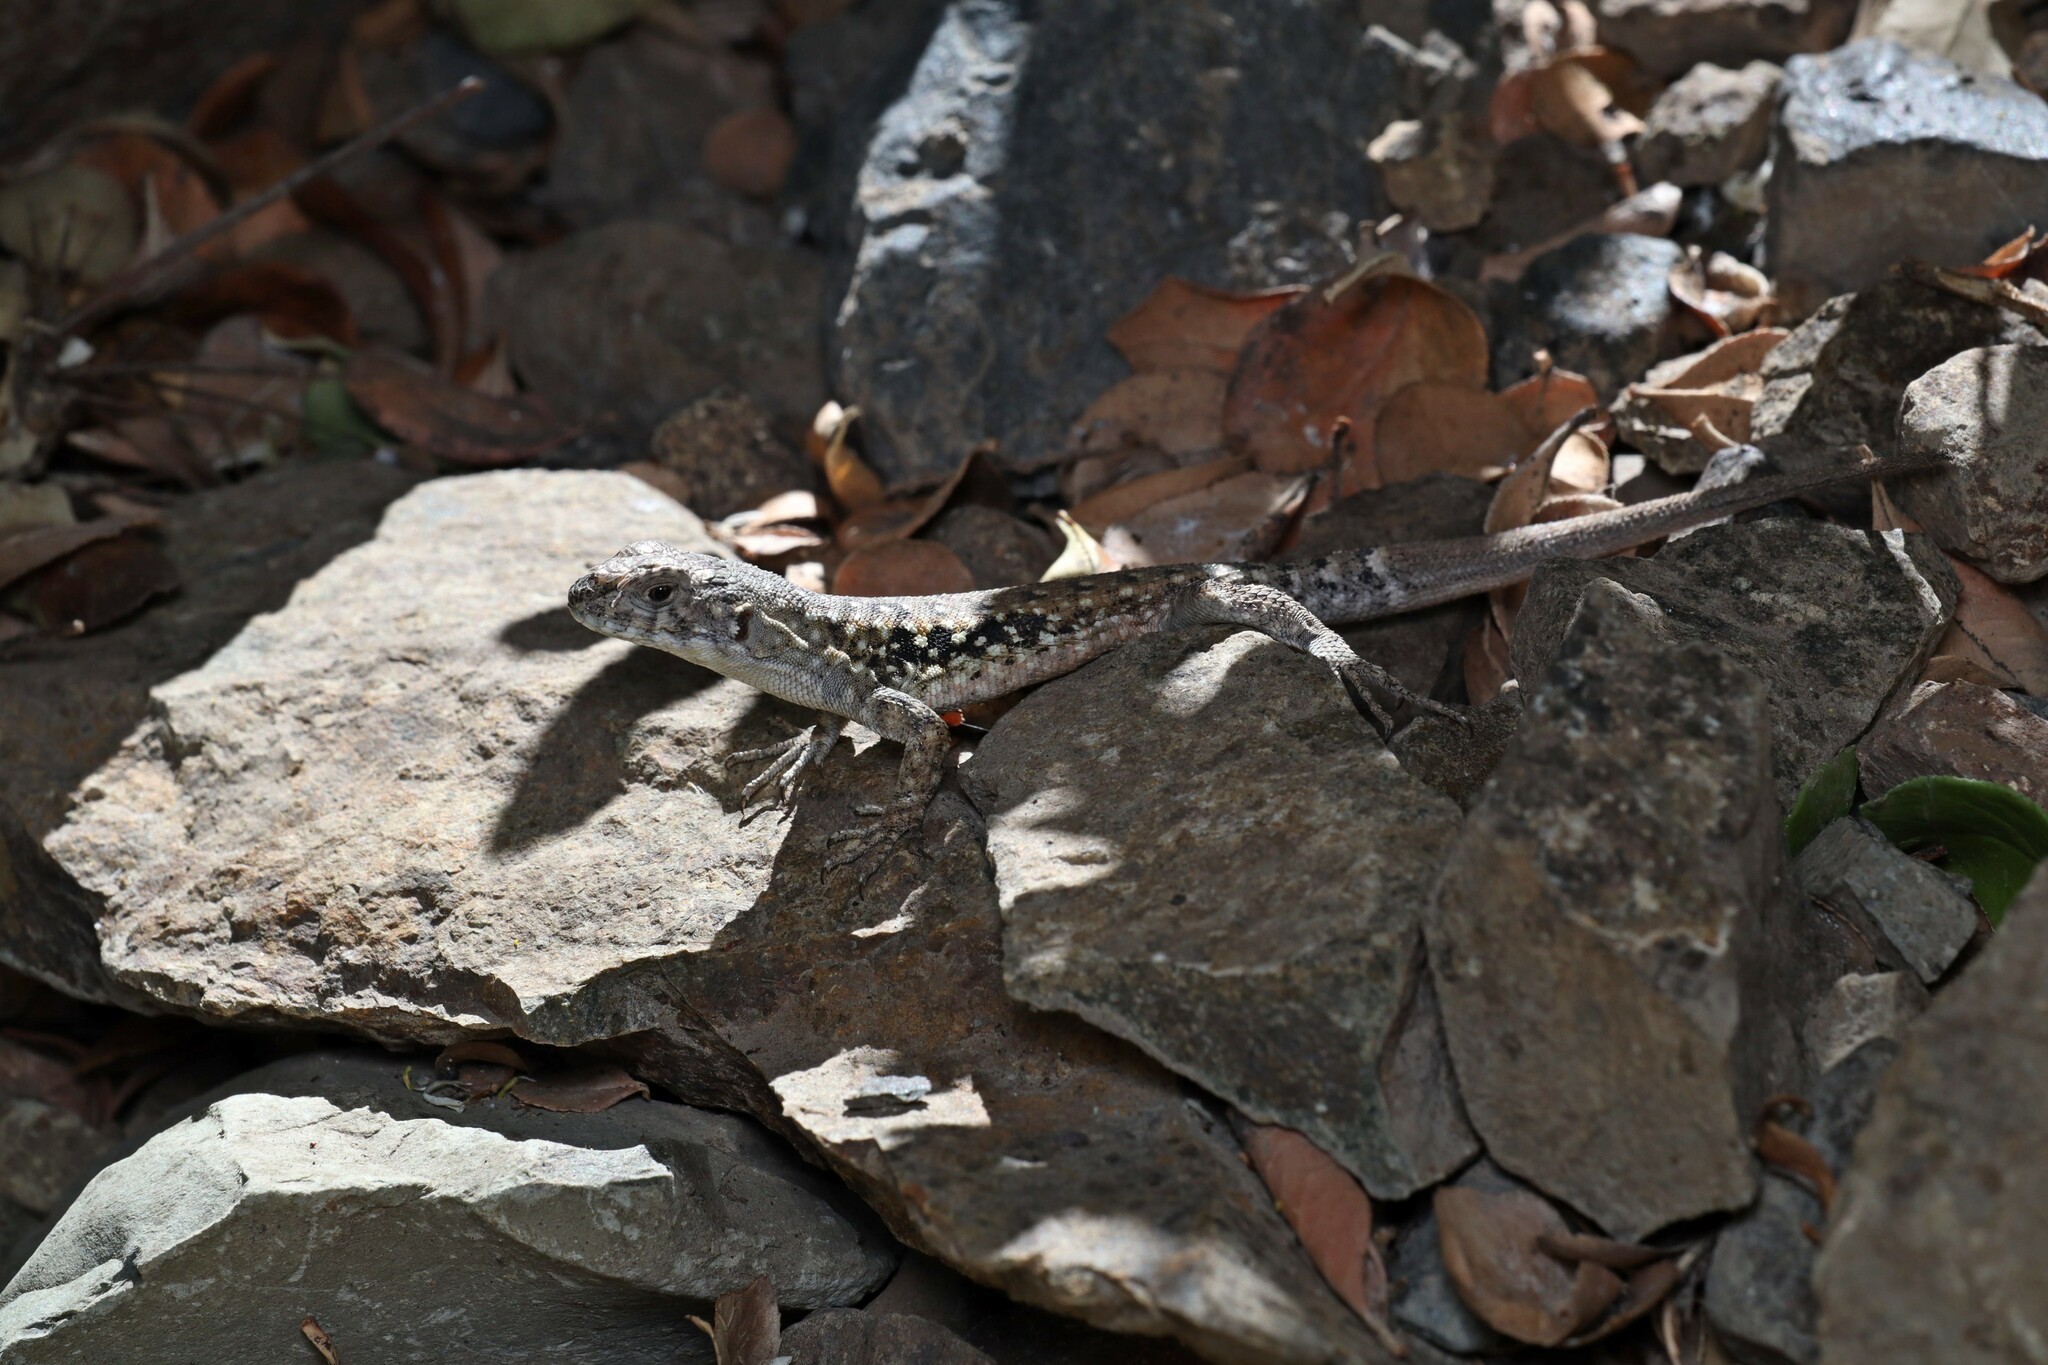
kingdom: Animalia
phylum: Chordata
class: Squamata
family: Liolaemidae
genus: Liolaemus
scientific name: Liolaemus monticola
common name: Peak tree iguana
